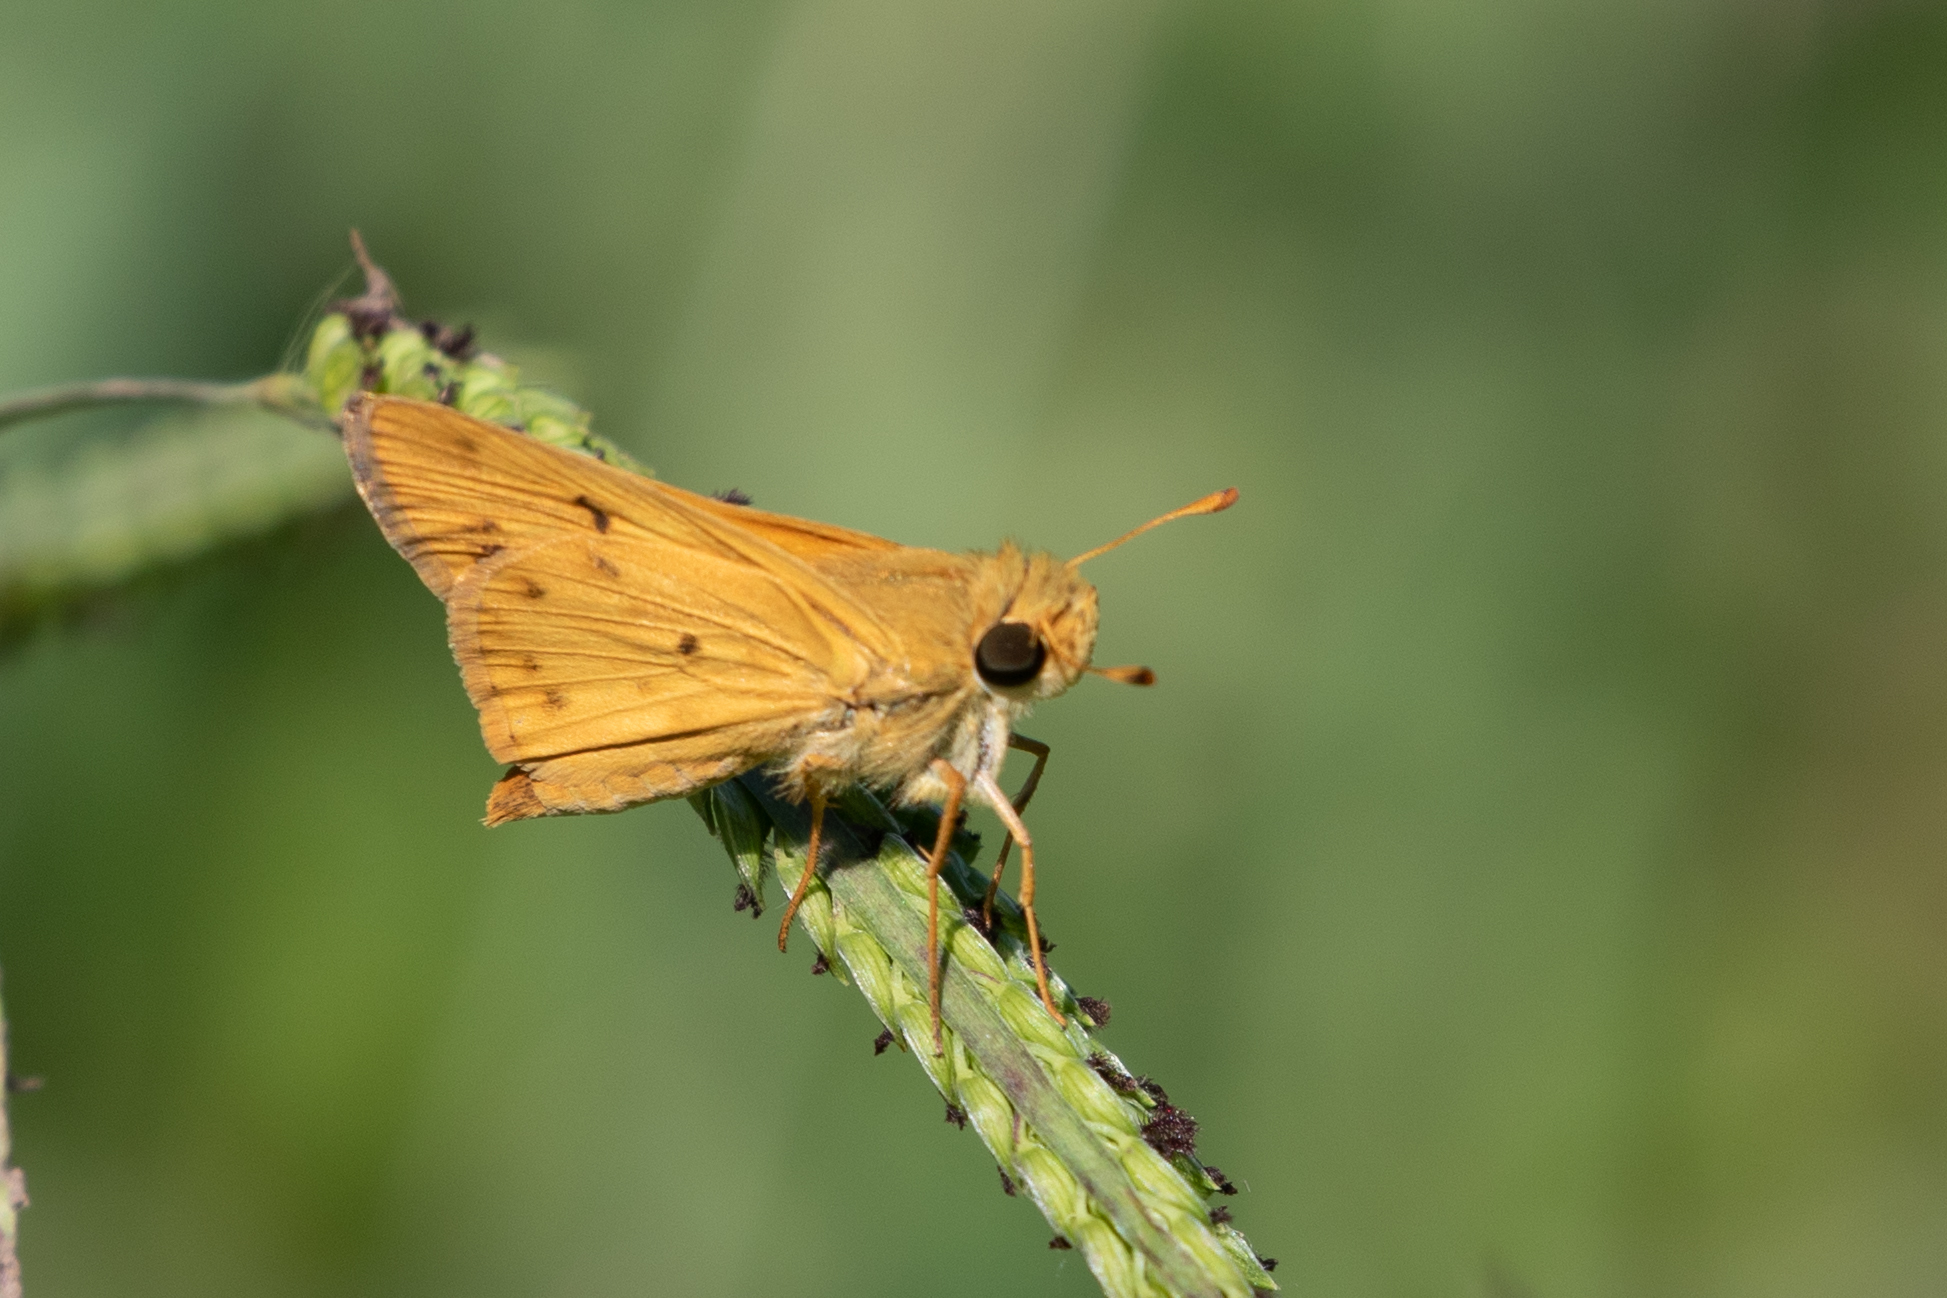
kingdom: Animalia
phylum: Arthropoda
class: Insecta
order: Lepidoptera
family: Hesperiidae
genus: Hylephila
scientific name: Hylephila phyleus
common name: Fiery skipper
